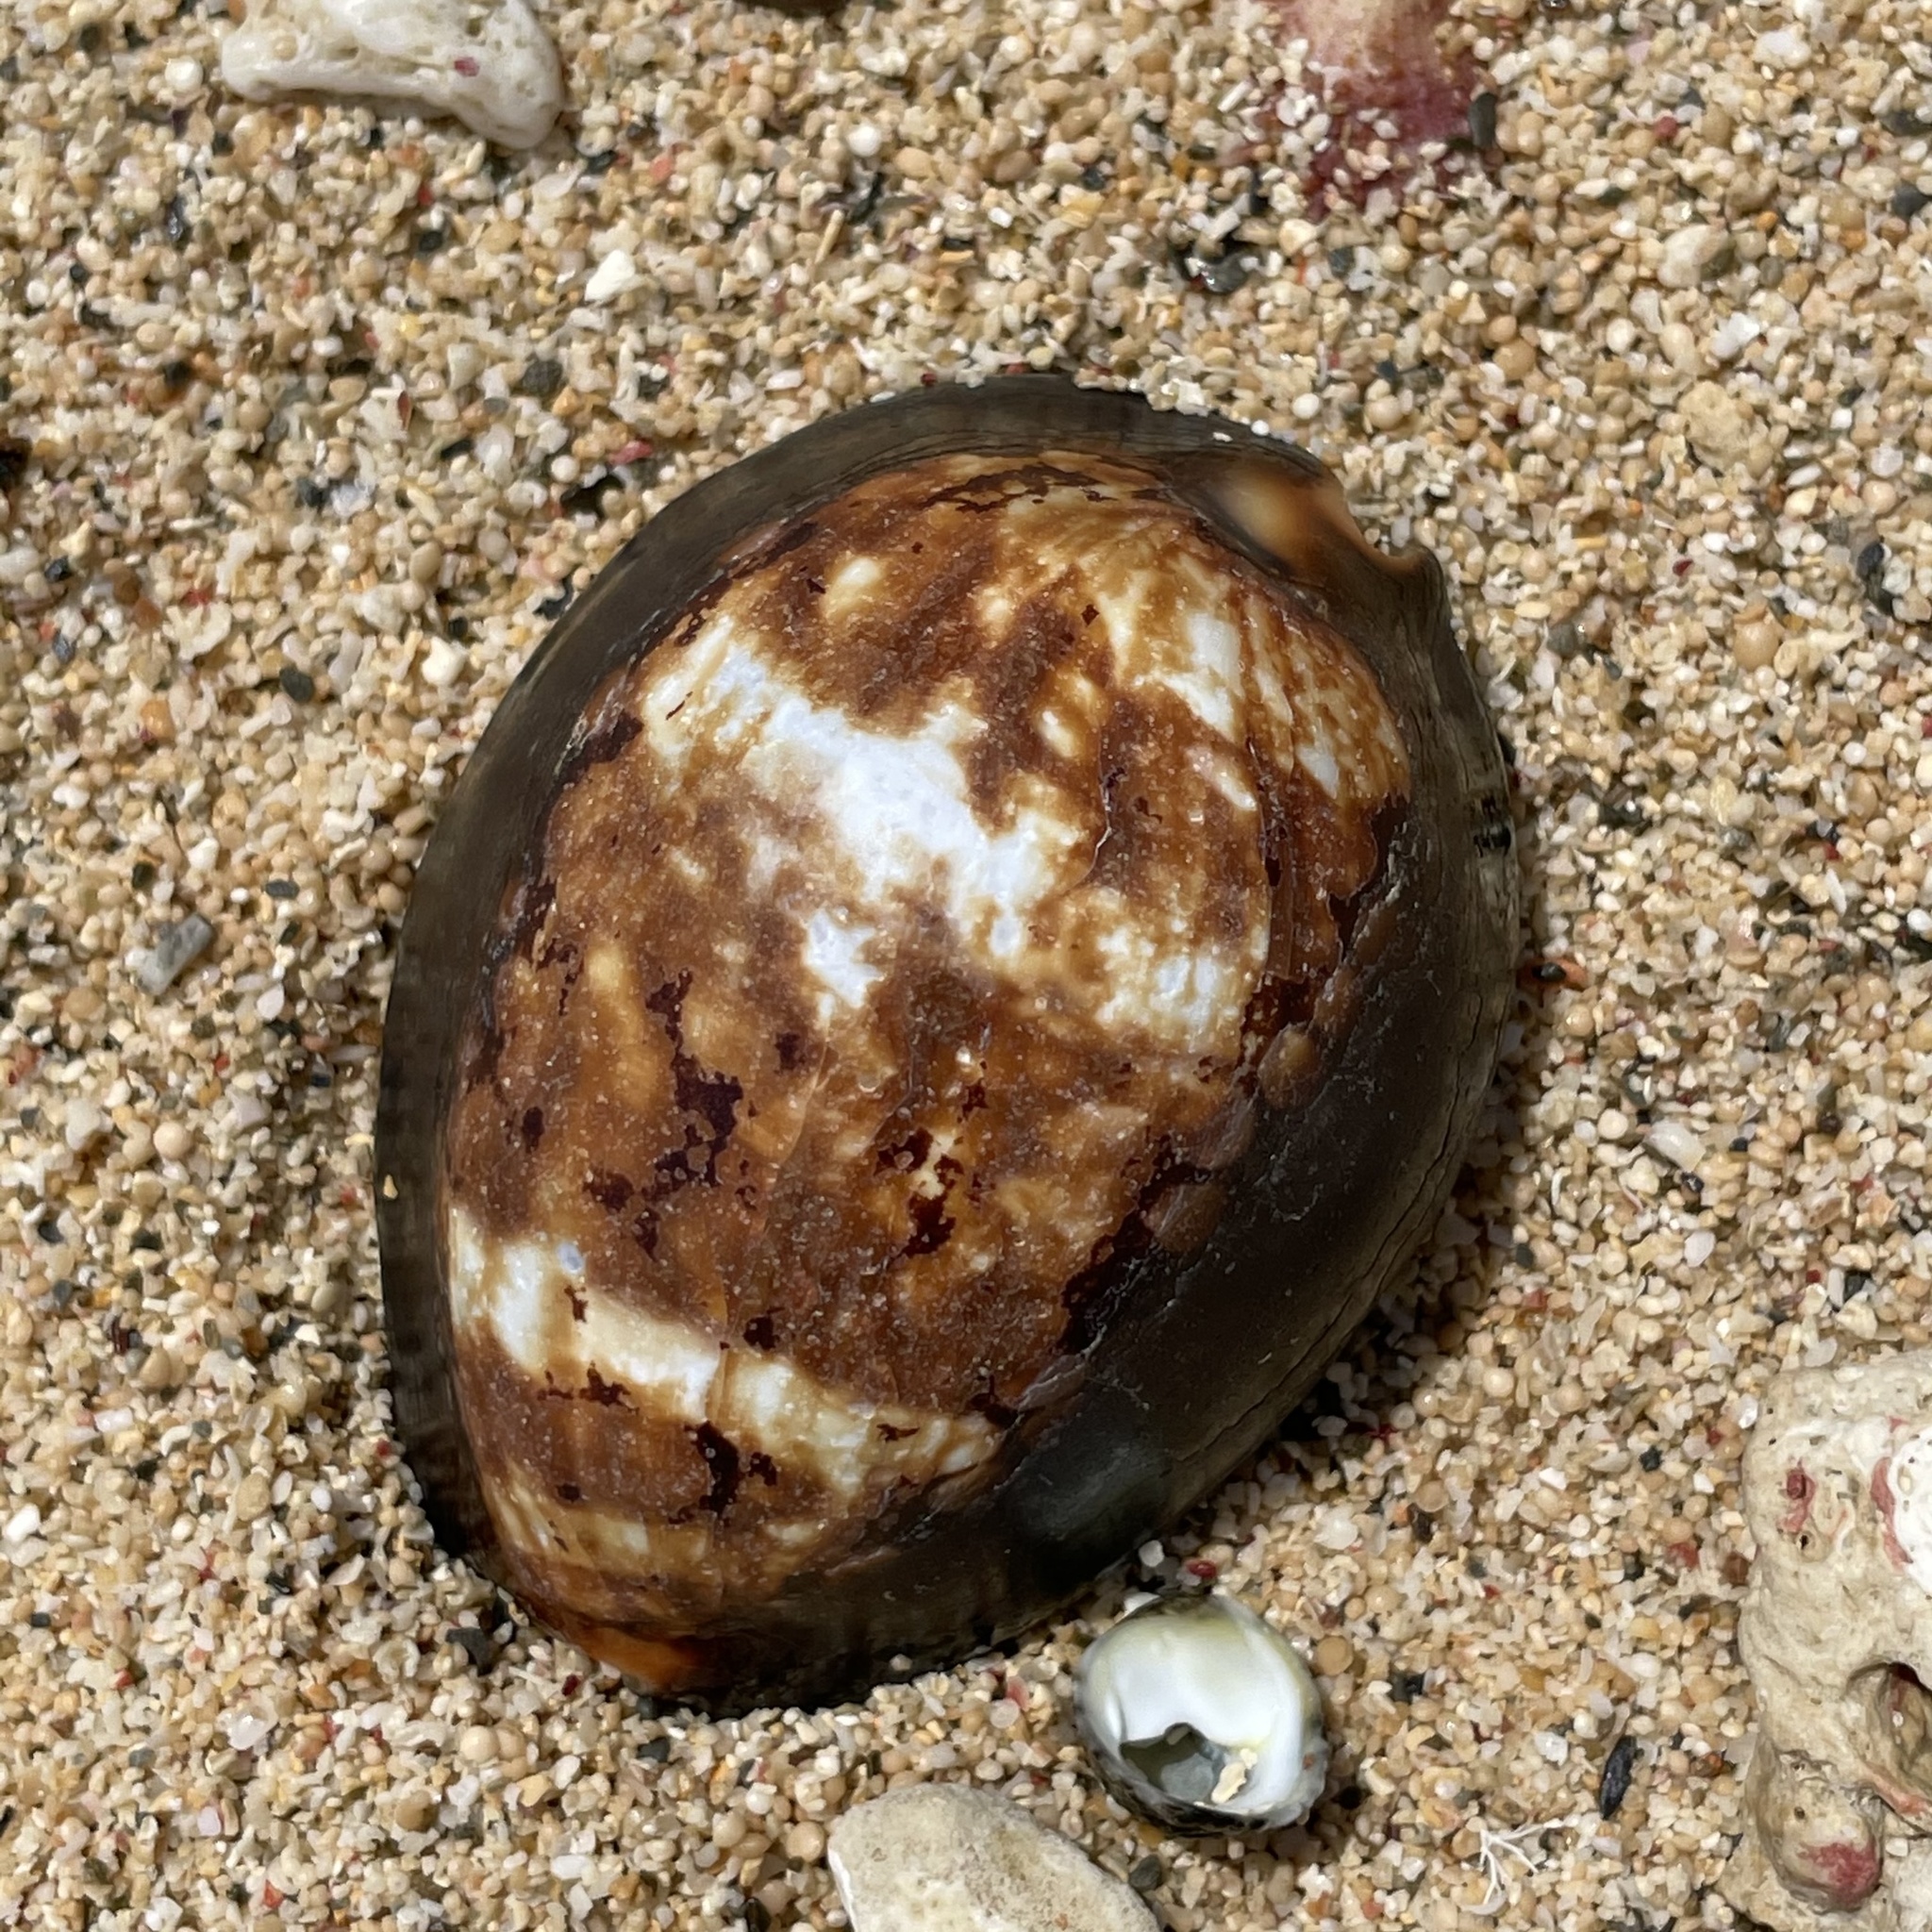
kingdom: Animalia
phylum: Mollusca
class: Gastropoda
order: Littorinimorpha
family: Cypraeidae
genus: Mauritia
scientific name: Mauritia mauritiana
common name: Hump-backed cowrie
